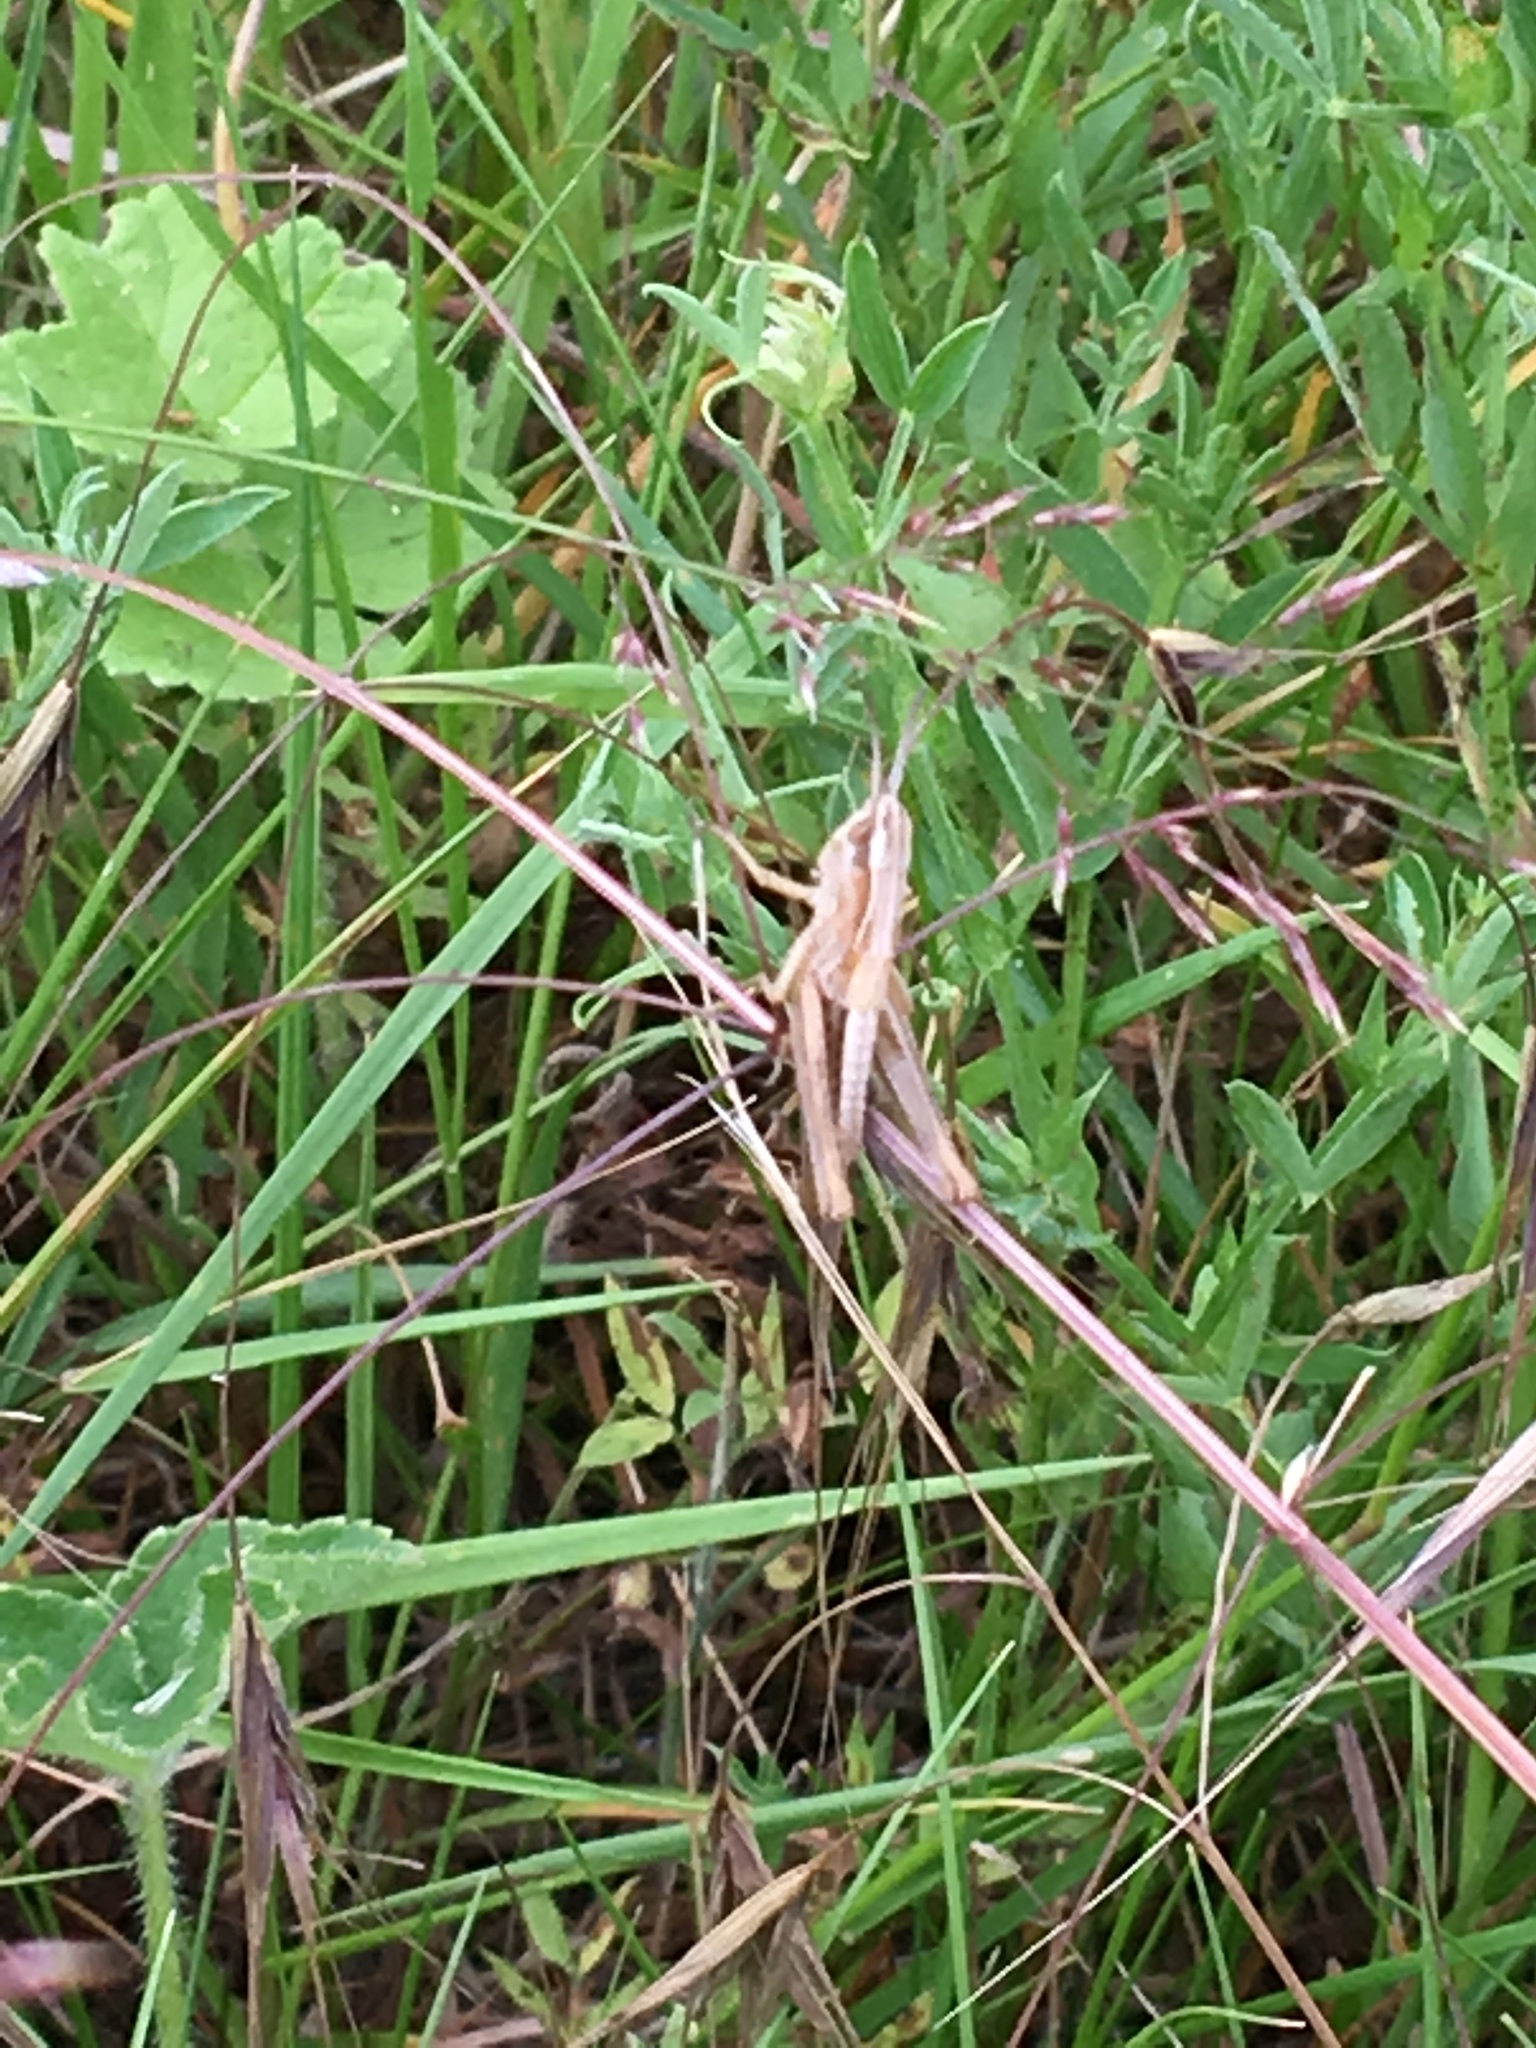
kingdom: Animalia
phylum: Arthropoda
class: Insecta
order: Orthoptera
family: Acrididae
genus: Pseudochorthippus
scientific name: Pseudochorthippus parallelus
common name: Meadow grasshopper
